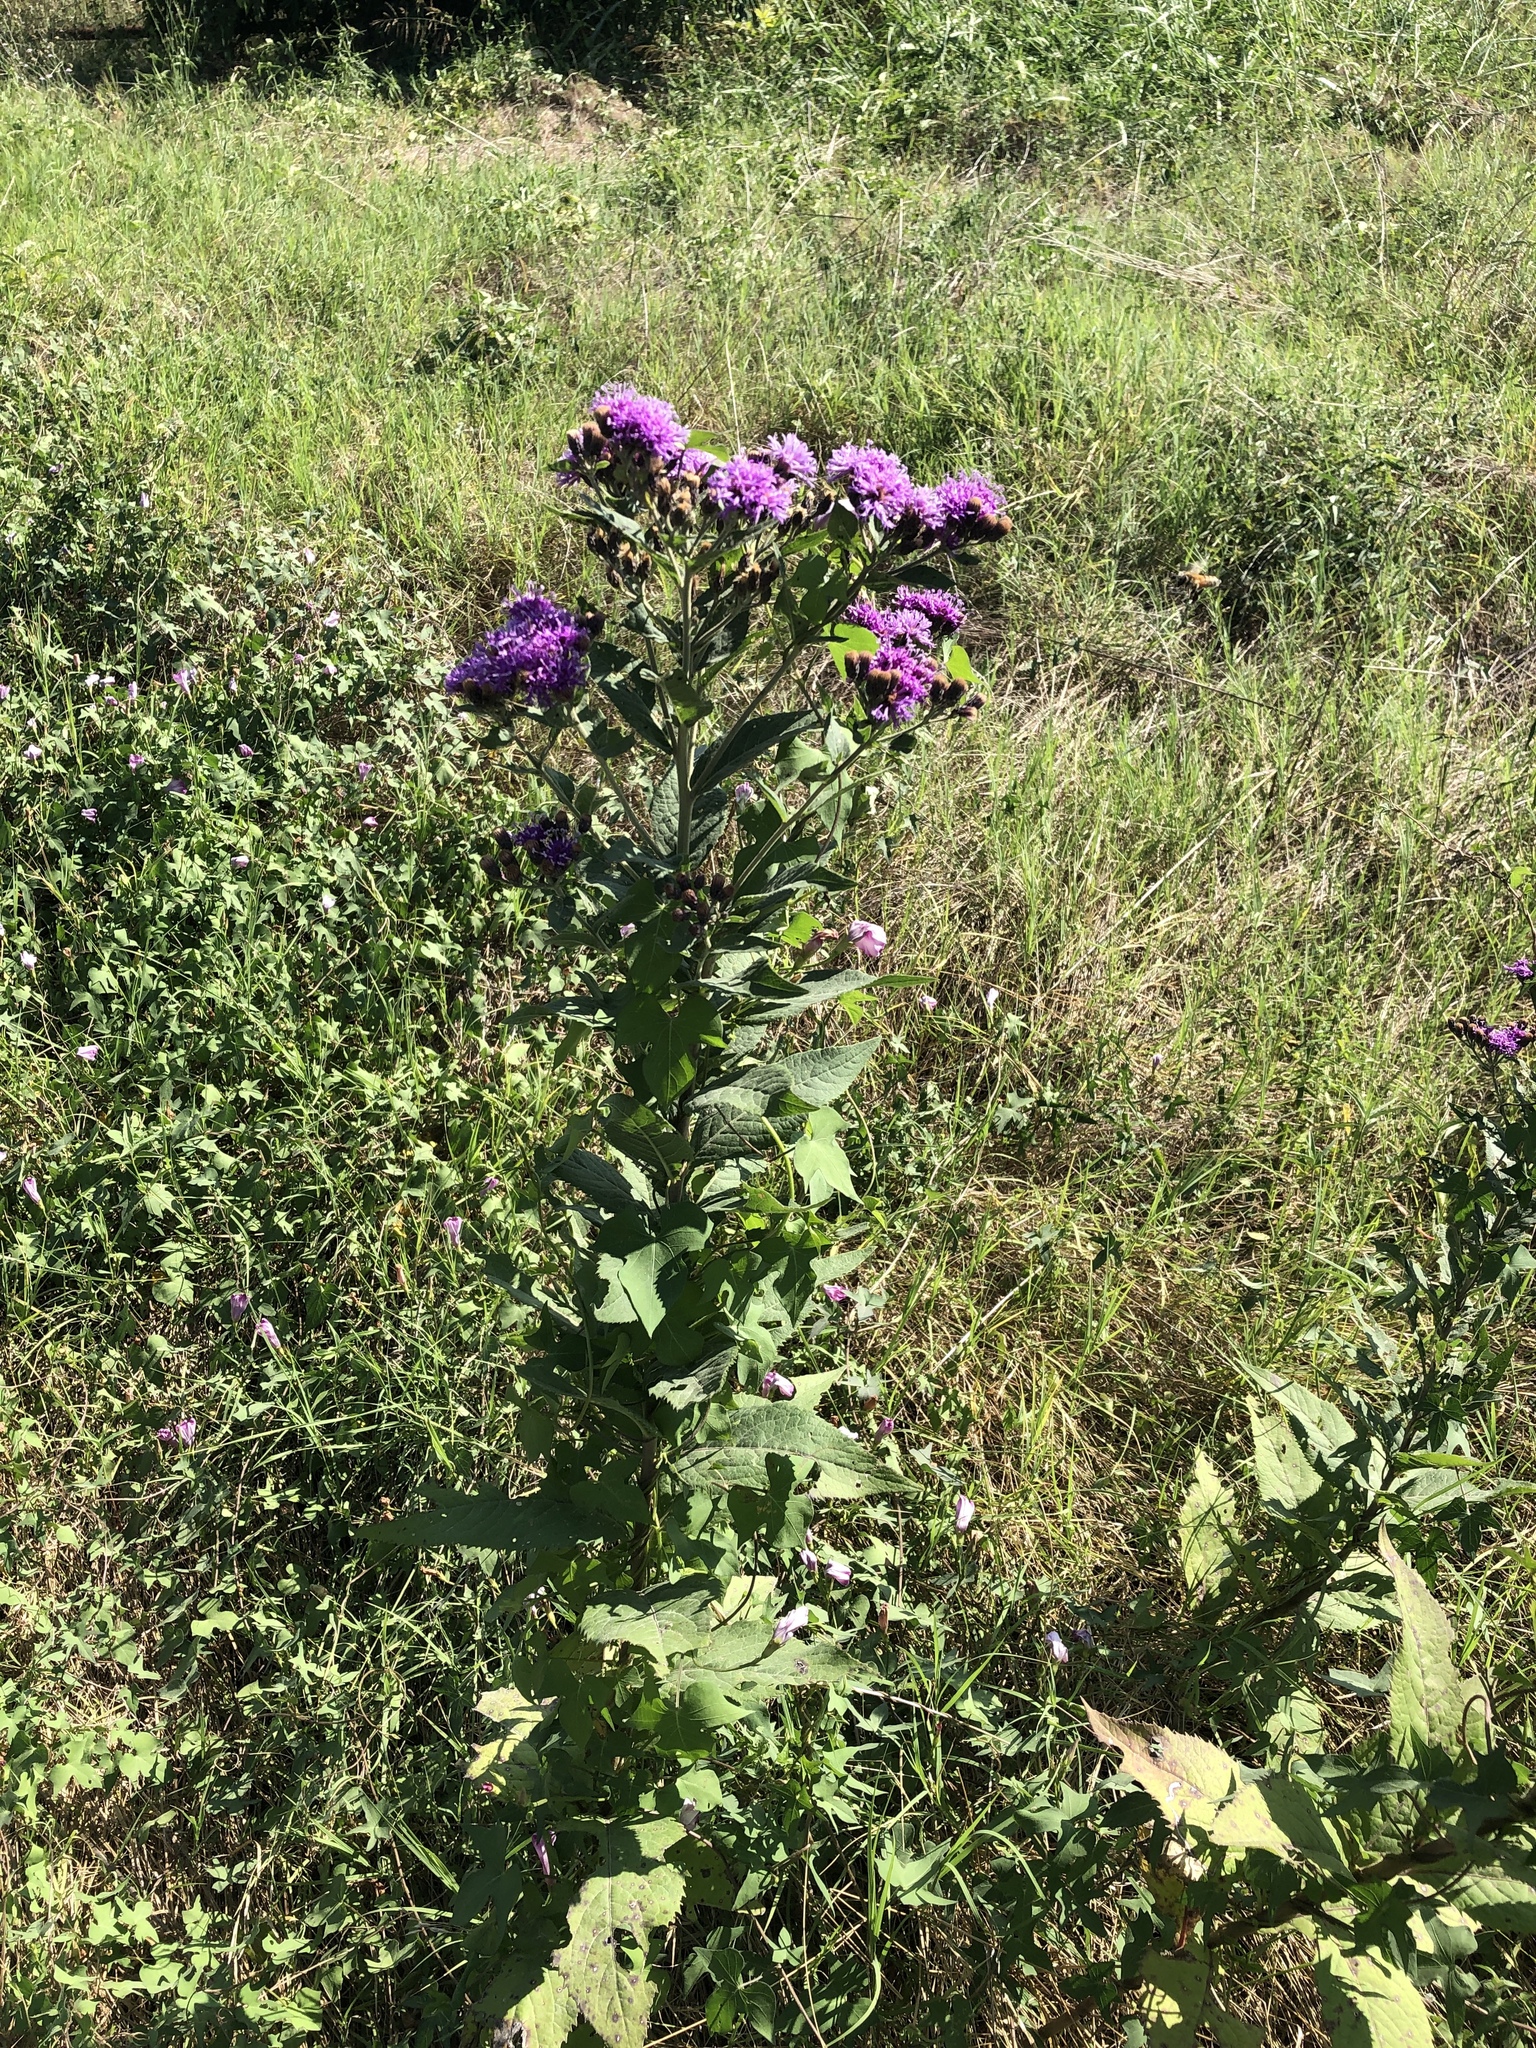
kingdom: Plantae
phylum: Tracheophyta
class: Magnoliopsida
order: Asterales
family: Asteraceae
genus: Vernonia
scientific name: Vernonia baldwinii
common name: Western ironweed
